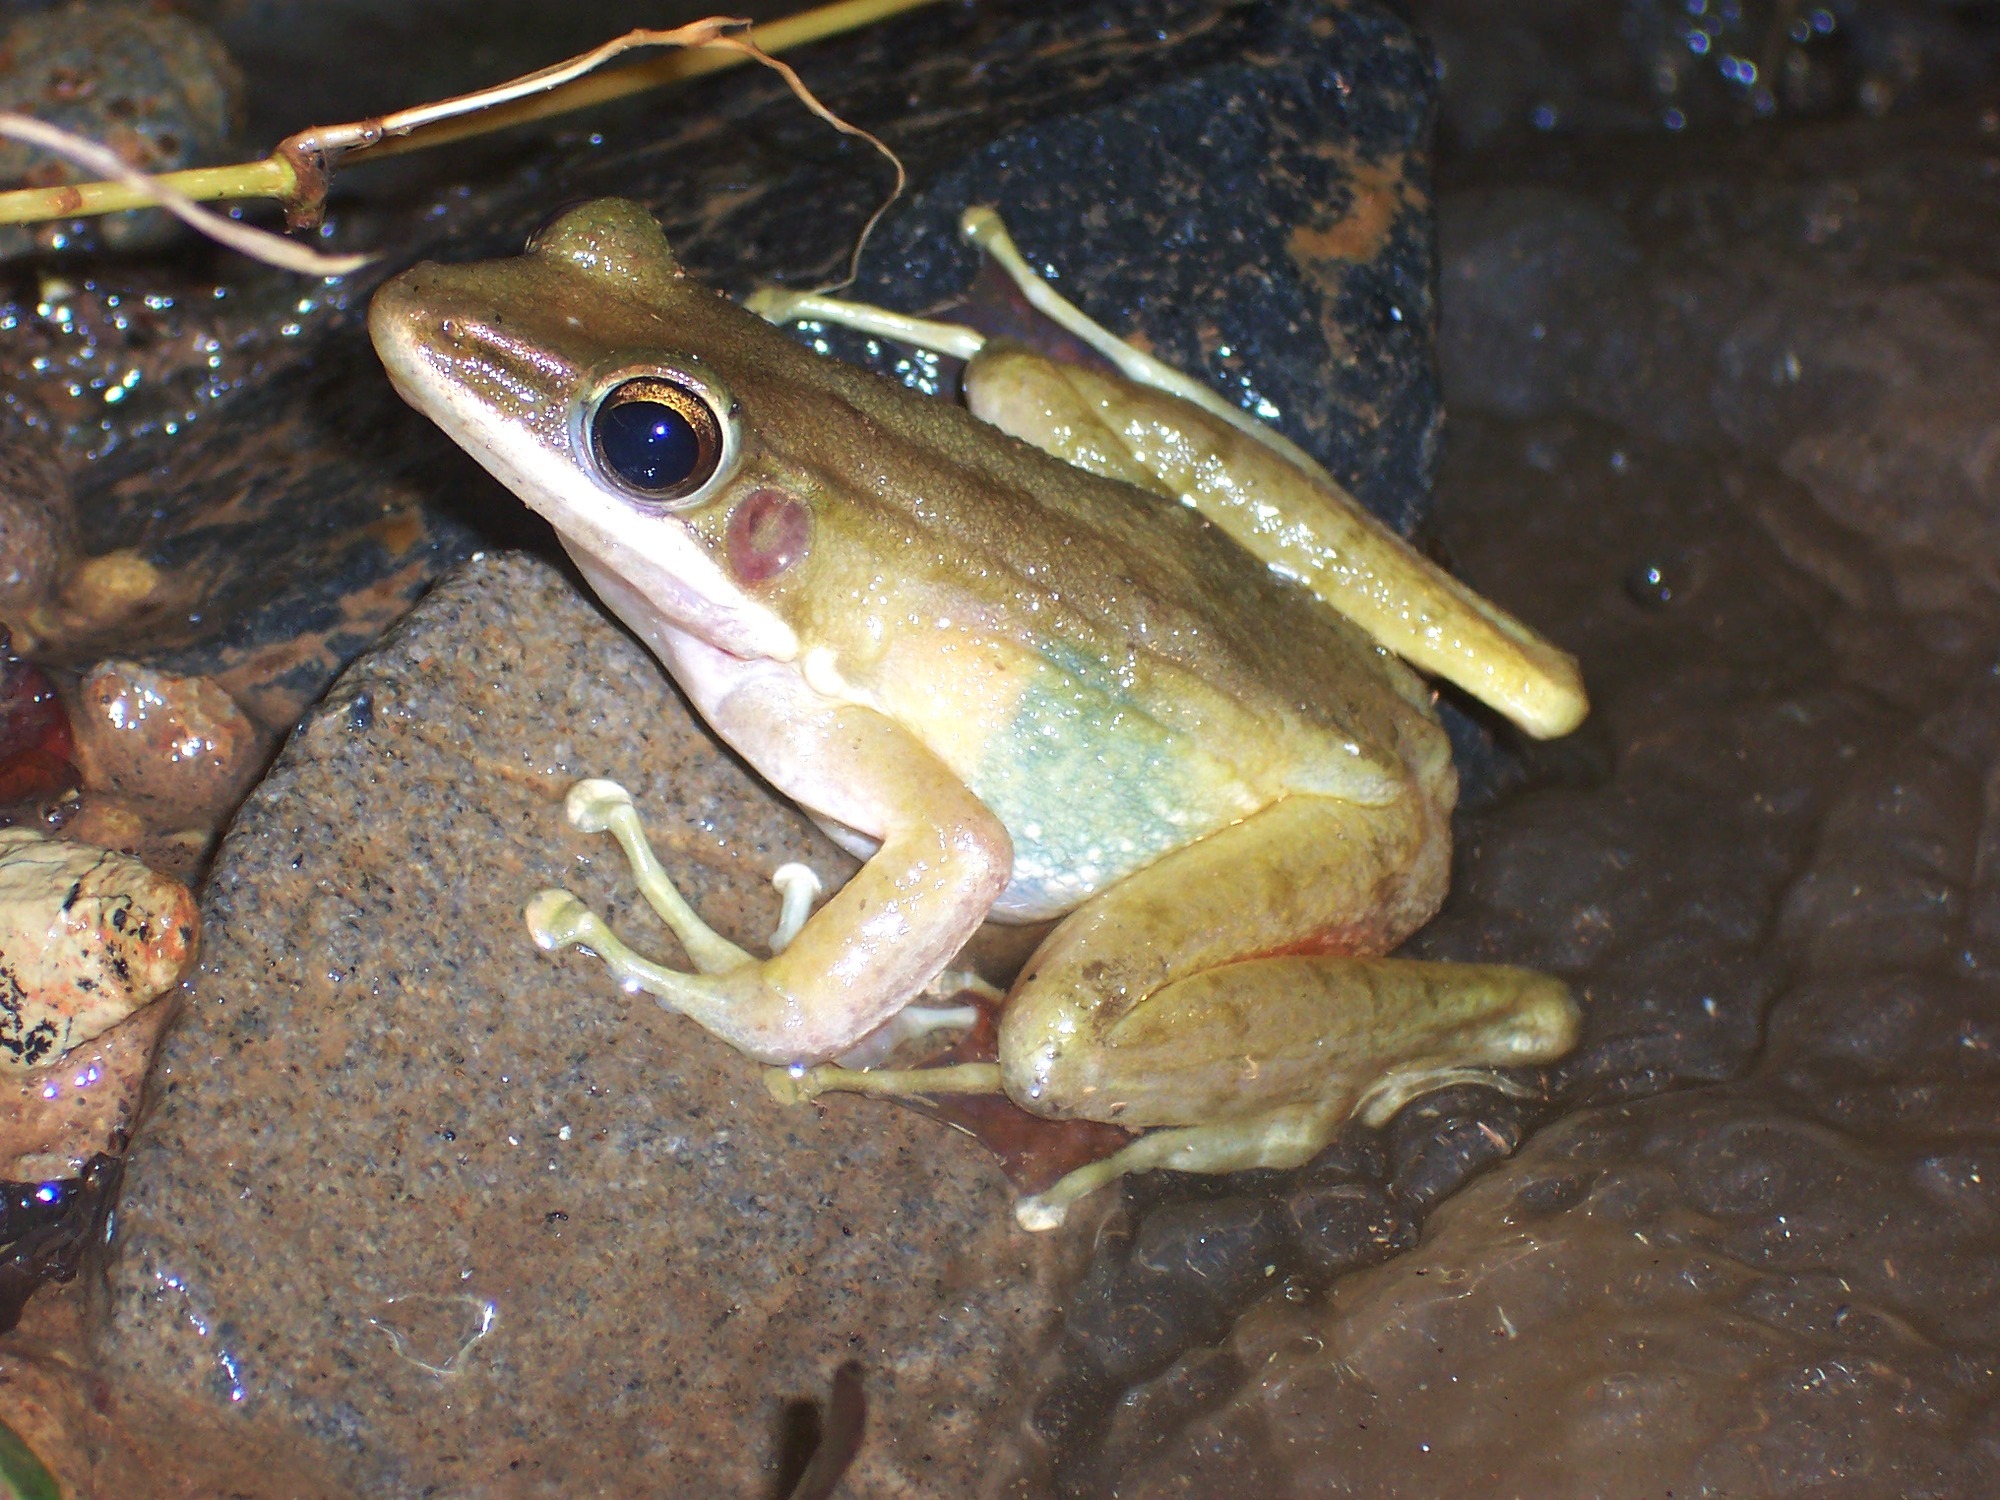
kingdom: Animalia
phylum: Chordata
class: Amphibia
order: Anura
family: Ranidae
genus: Chalcorana
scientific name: Chalcorana chalconota
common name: Schlegel's frog
